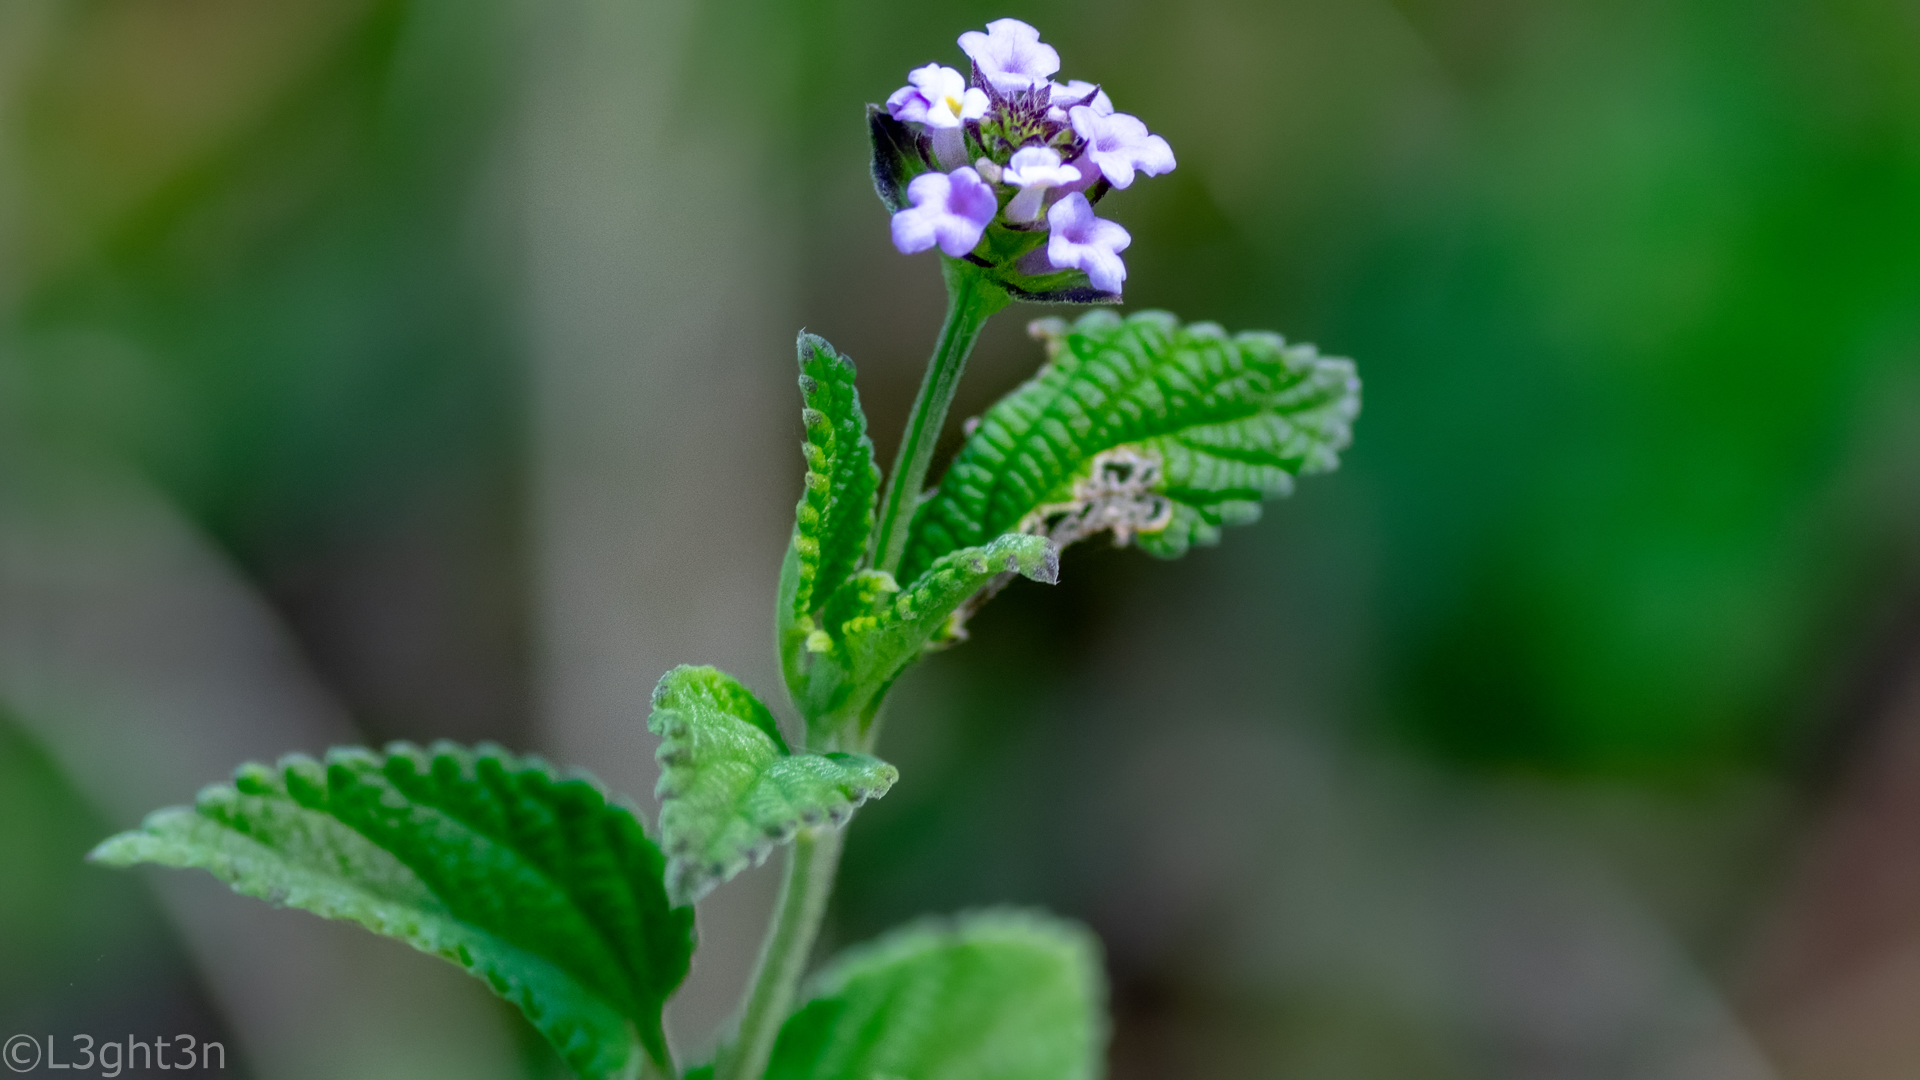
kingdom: Plantae
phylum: Tracheophyta
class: Magnoliopsida
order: Lamiales
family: Verbenaceae
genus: Lantana
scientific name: Lantana trifolia
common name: Sweet-sage
